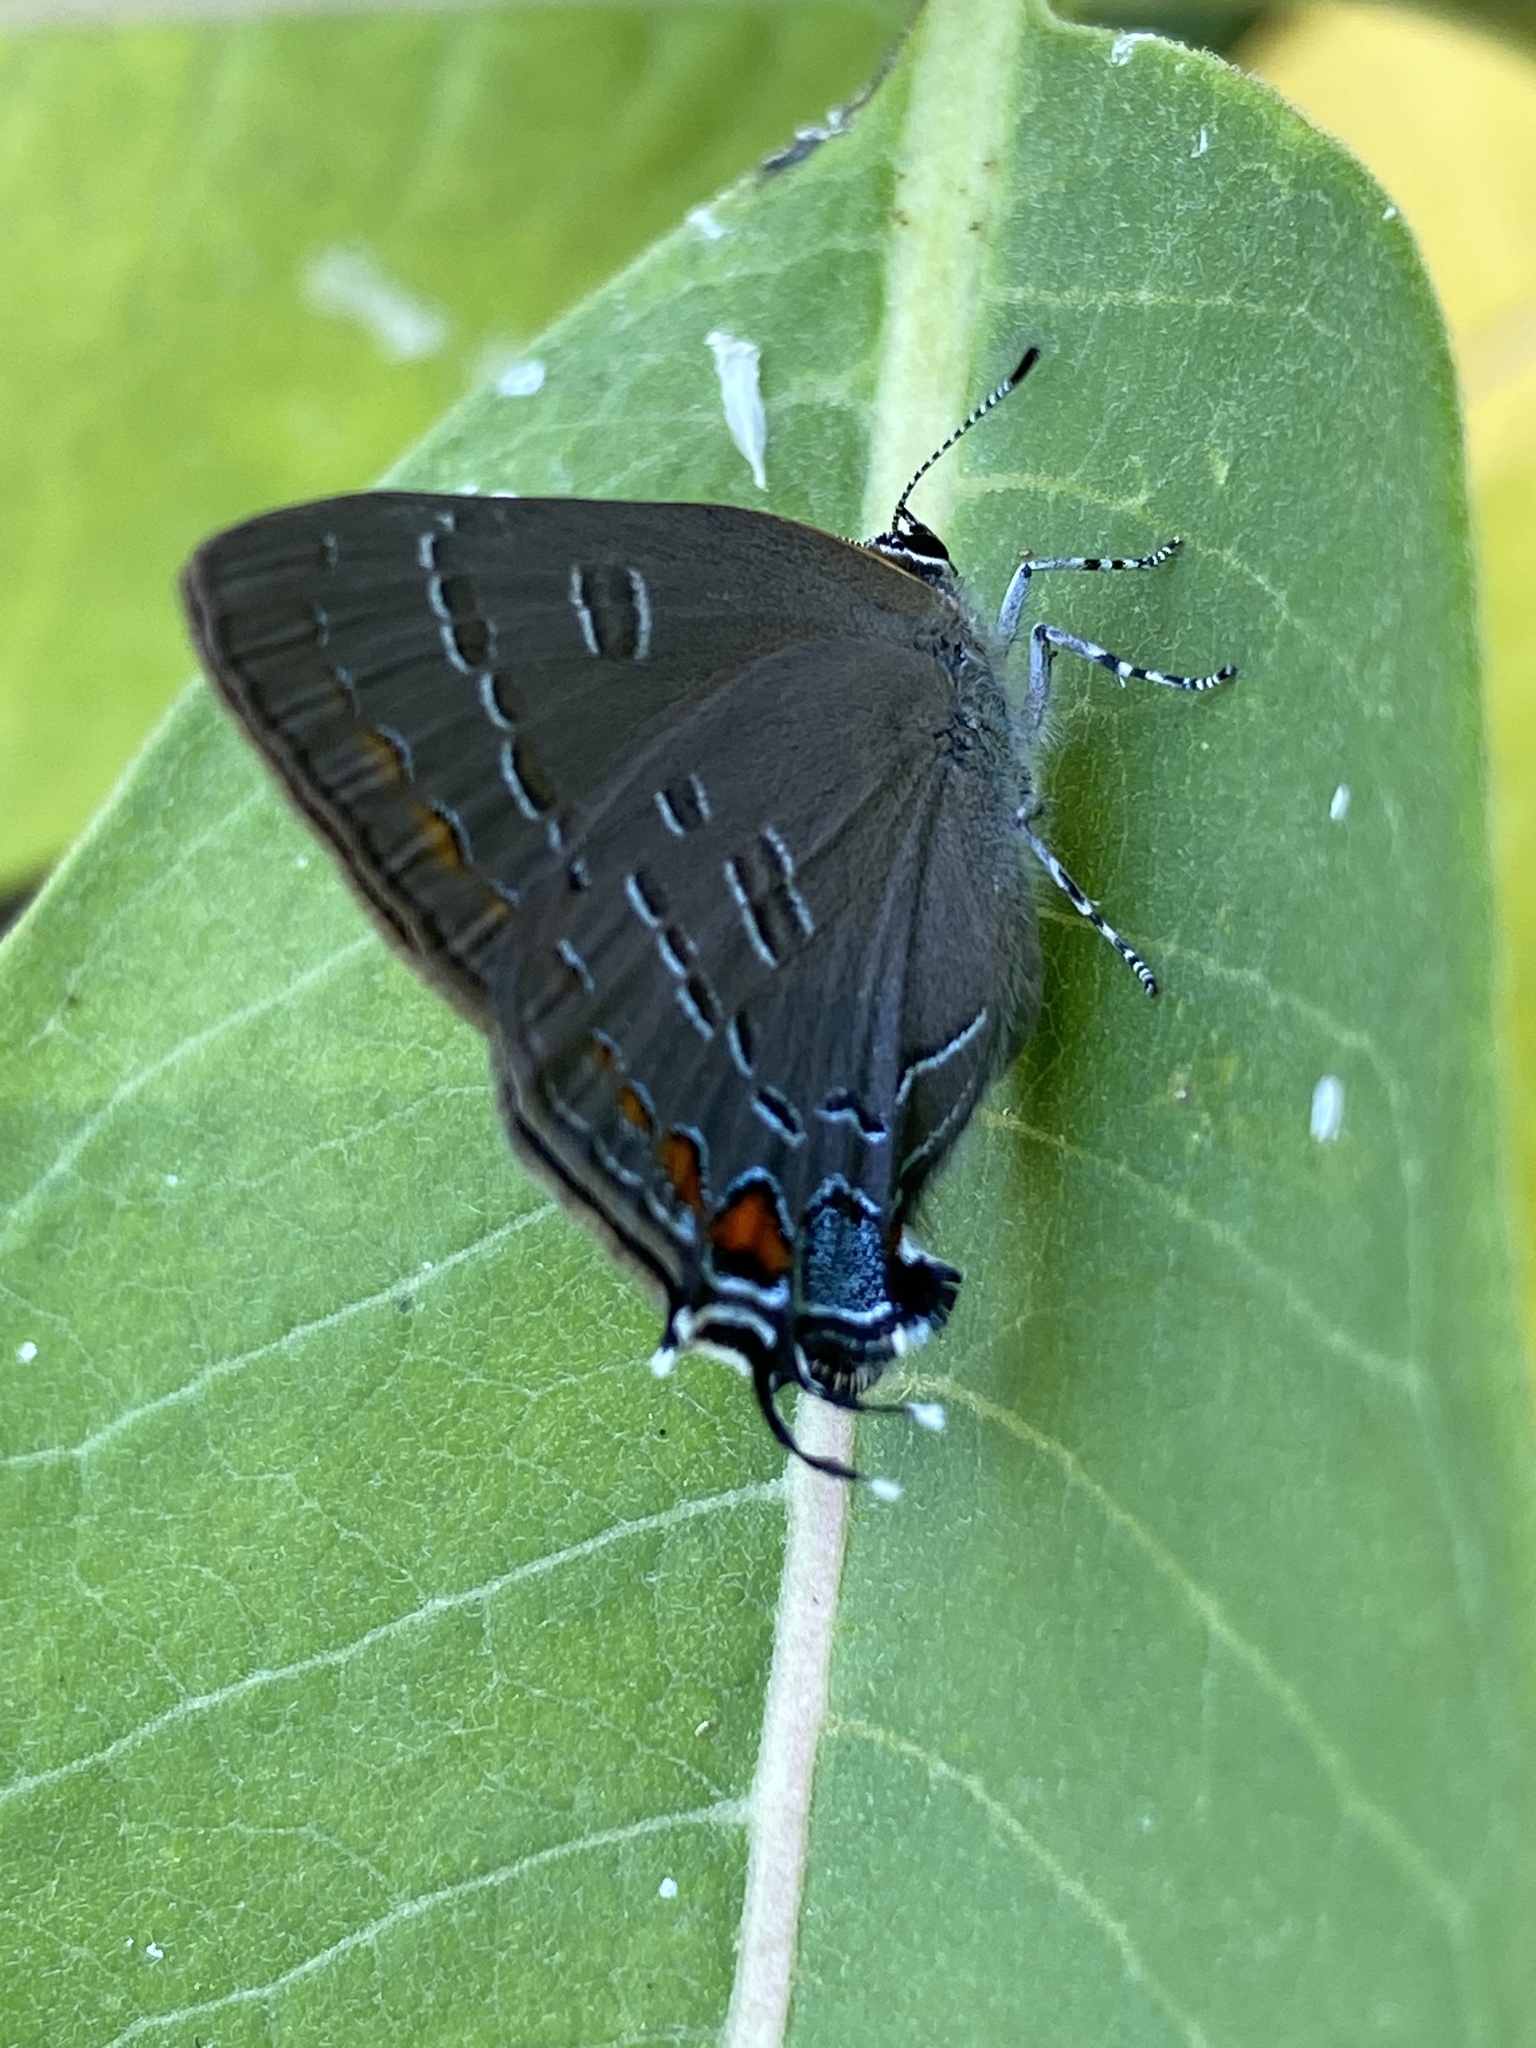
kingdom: Animalia
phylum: Arthropoda
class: Insecta
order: Lepidoptera
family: Lycaenidae
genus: Satyrium
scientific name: Satyrium calanus
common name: Banded hairstreak
